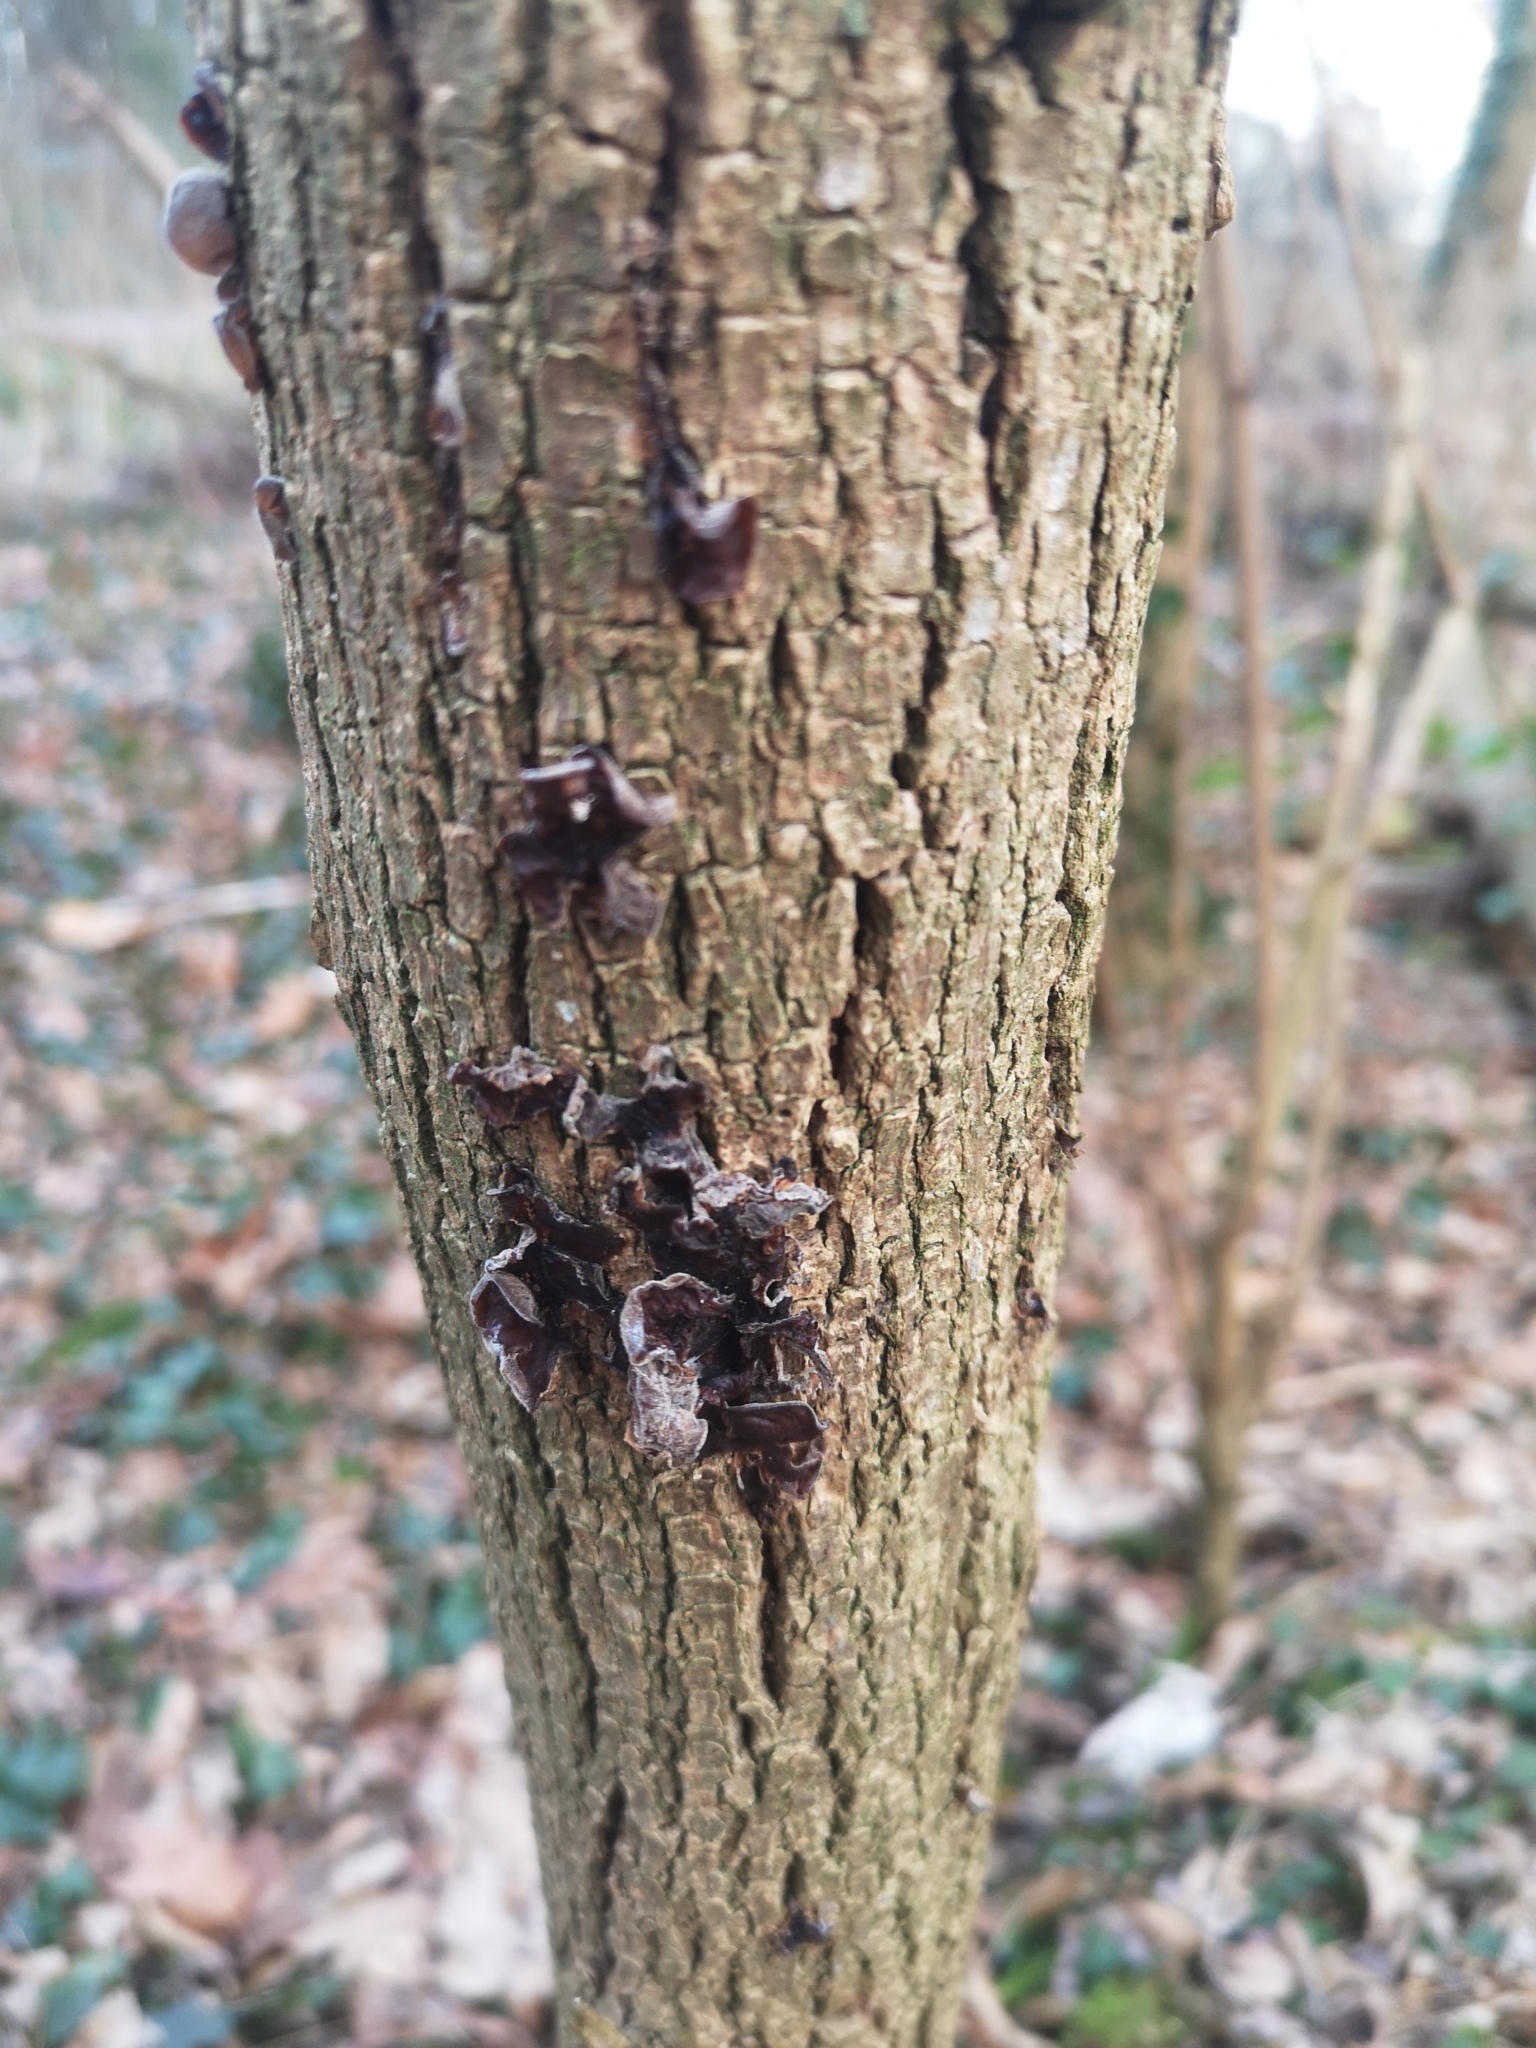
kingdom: Fungi
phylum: Basidiomycota
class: Agaricomycetes
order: Auriculariales
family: Auriculariaceae
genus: Auricularia
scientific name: Auricularia auricula-judae
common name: Jelly ear
